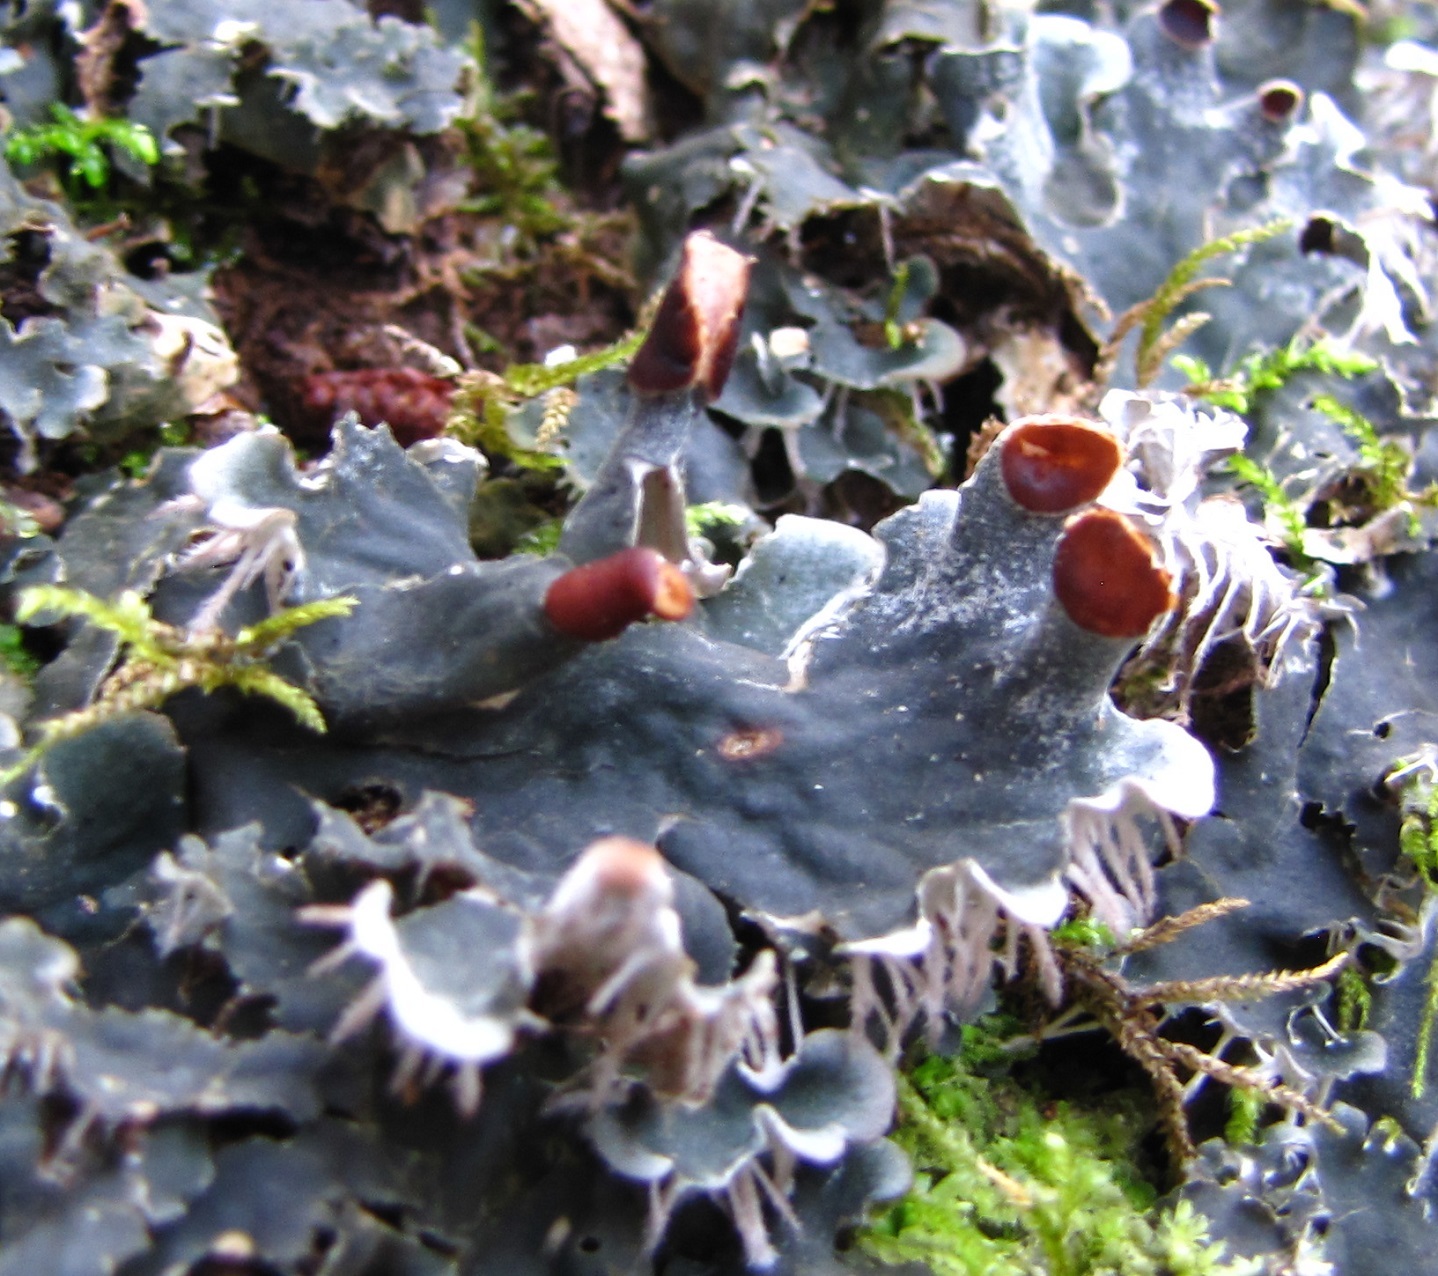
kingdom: Fungi
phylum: Ascomycota
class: Lecanoromycetes
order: Peltigerales
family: Peltigeraceae
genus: Peltigera
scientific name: Peltigera canina
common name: Dog pelt lichen
